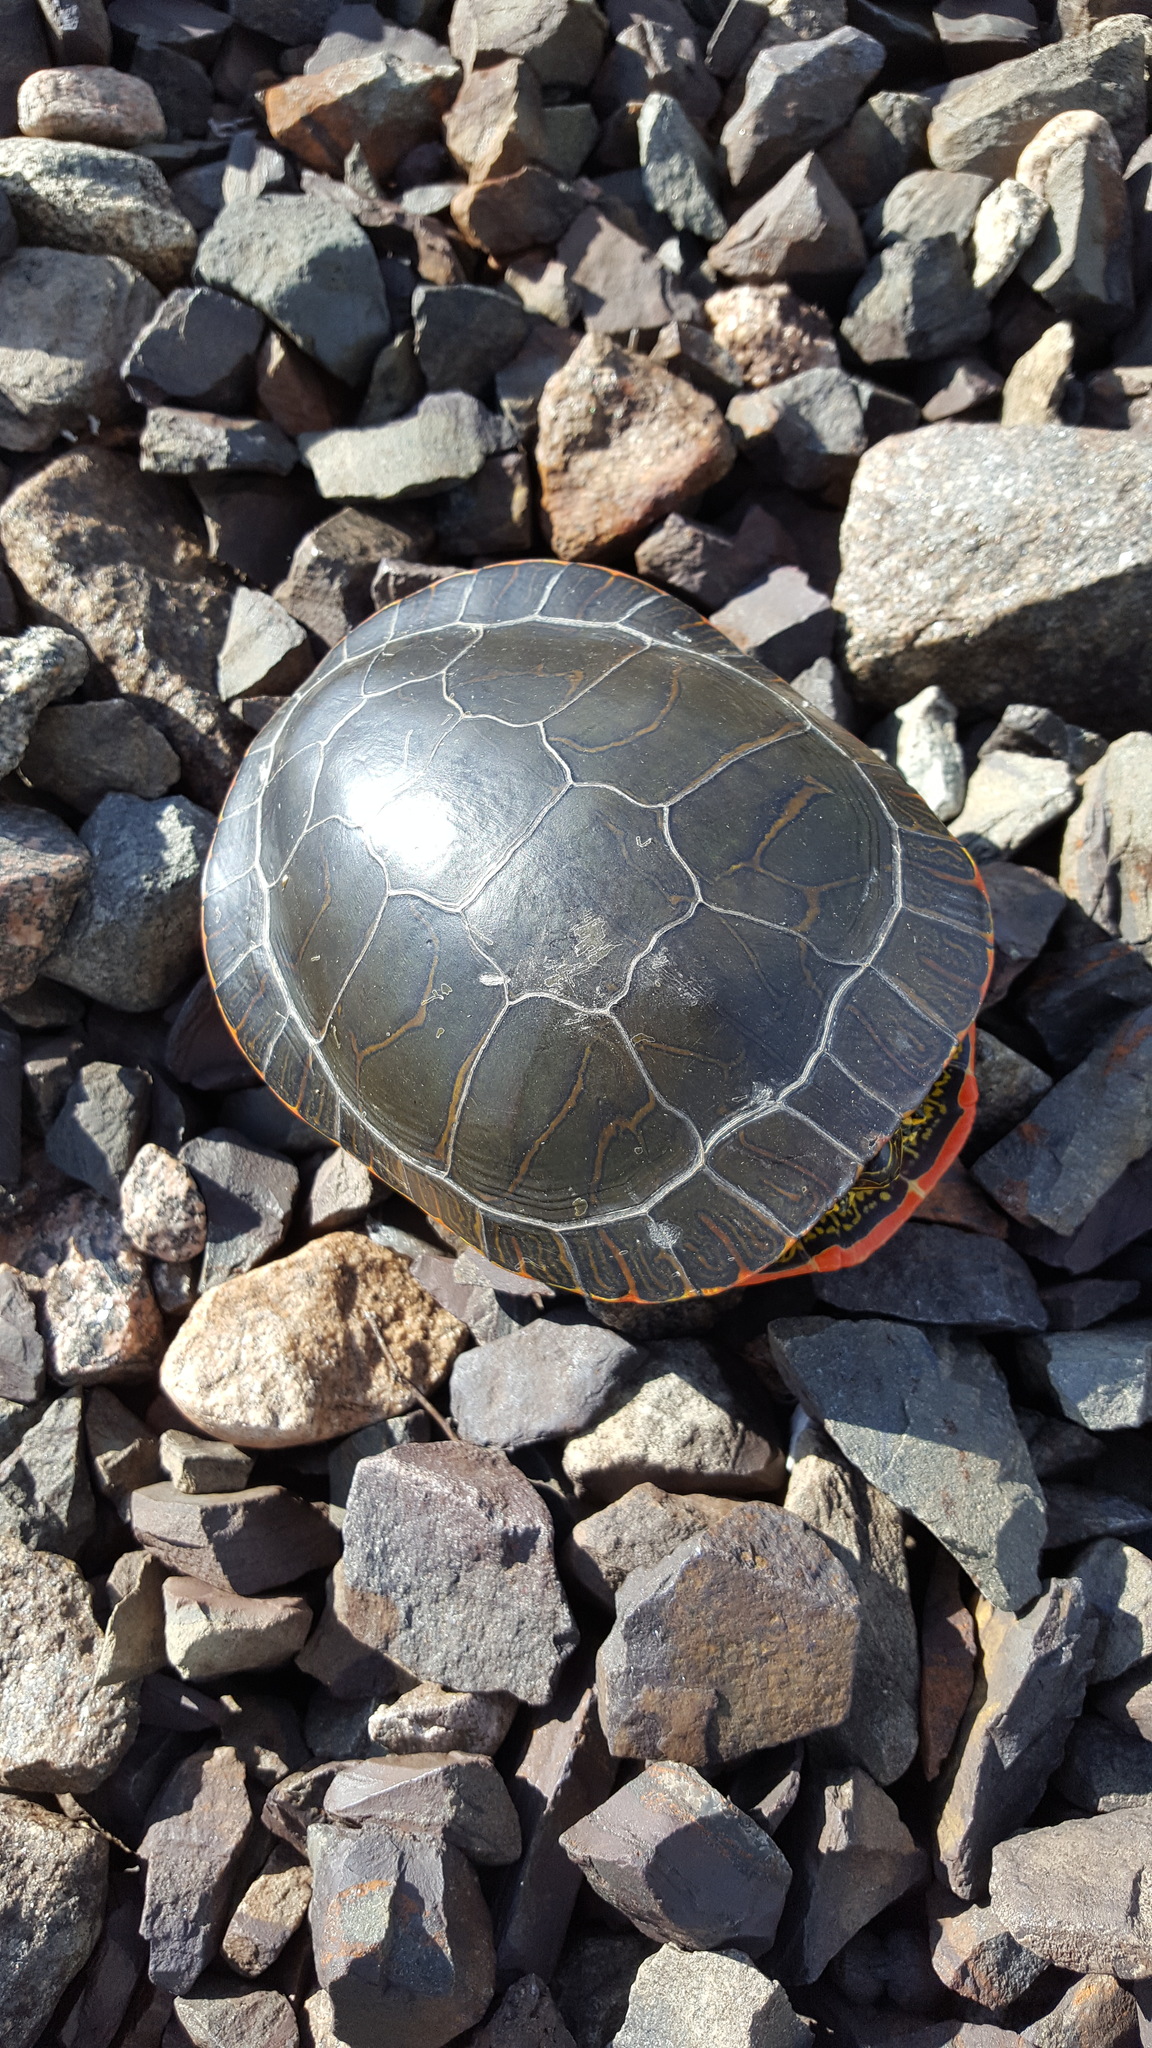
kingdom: Animalia
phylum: Chordata
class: Testudines
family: Emydidae
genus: Chrysemys
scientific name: Chrysemys picta
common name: Painted turtle
